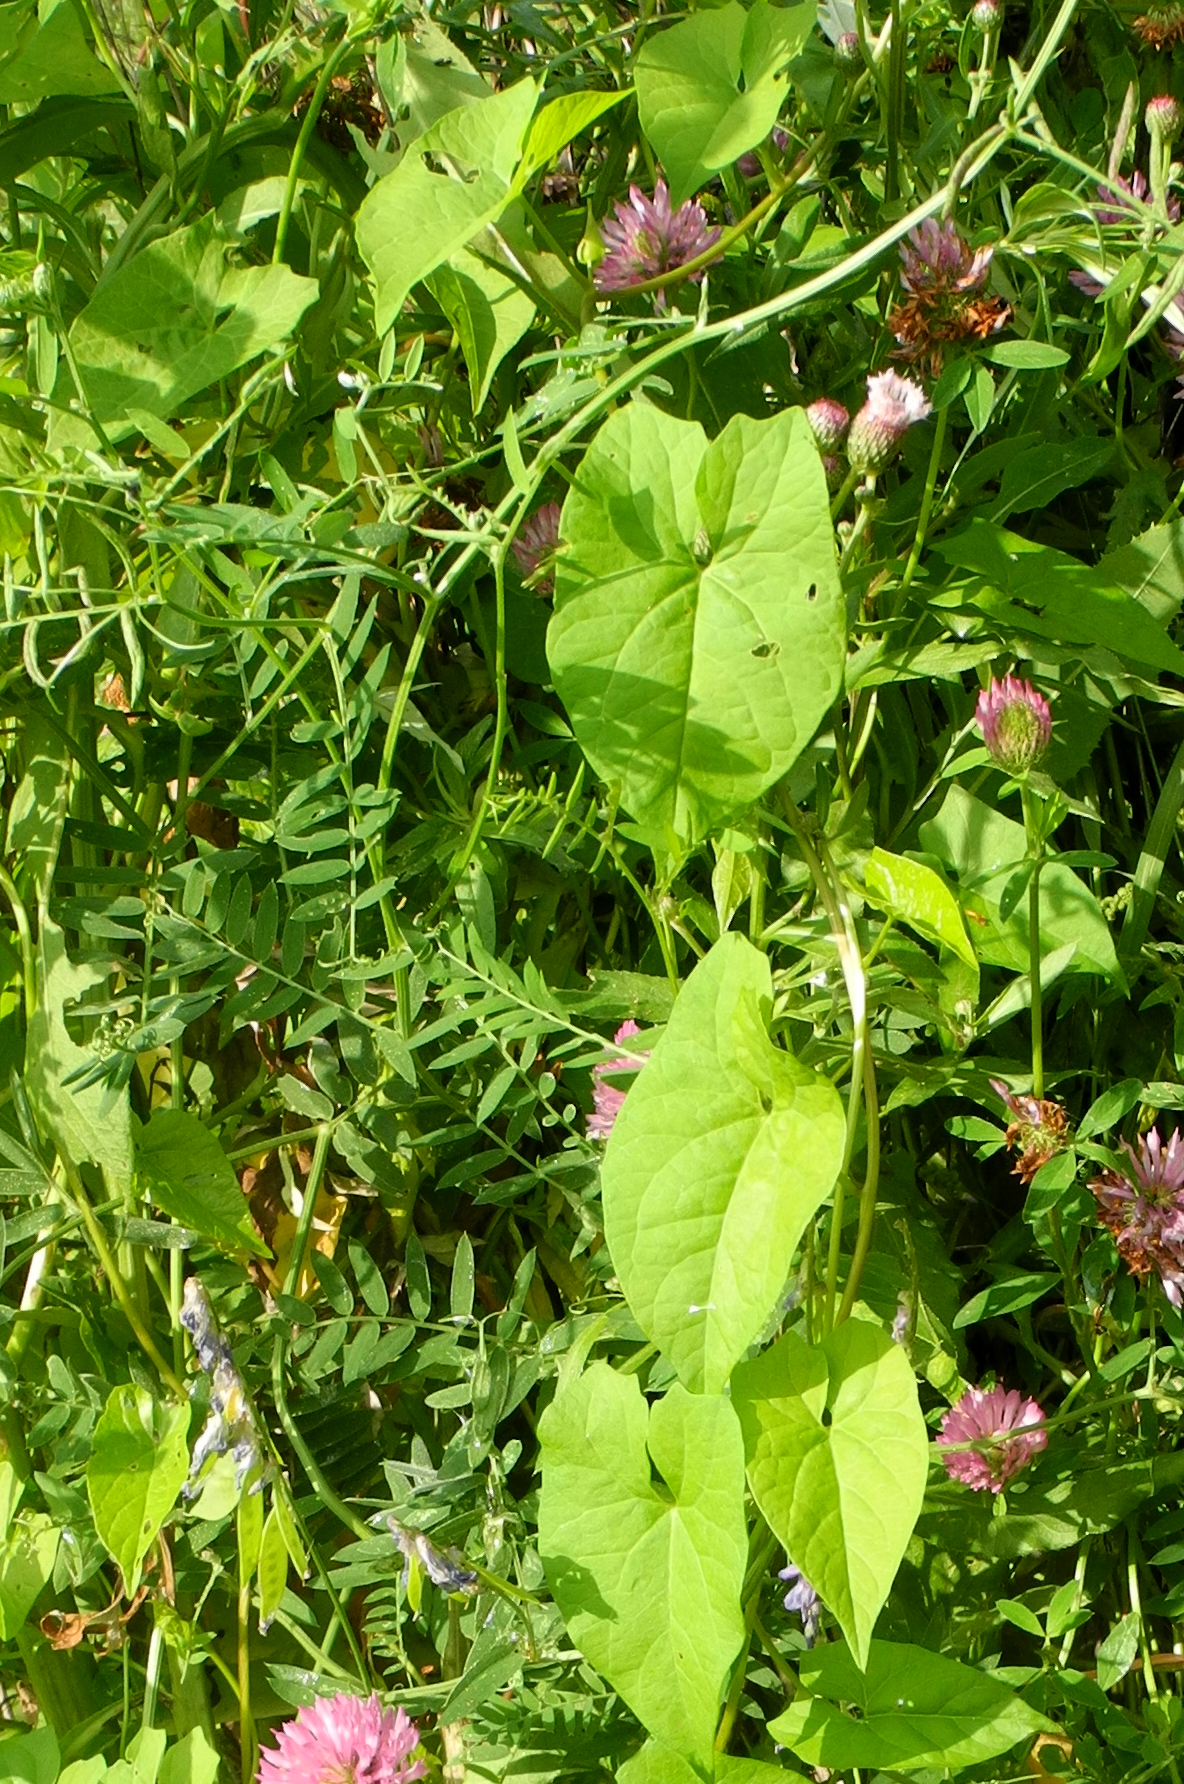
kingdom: Plantae
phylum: Tracheophyta
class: Magnoliopsida
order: Solanales
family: Convolvulaceae
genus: Calystegia
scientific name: Calystegia sepium
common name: Hedge bindweed
